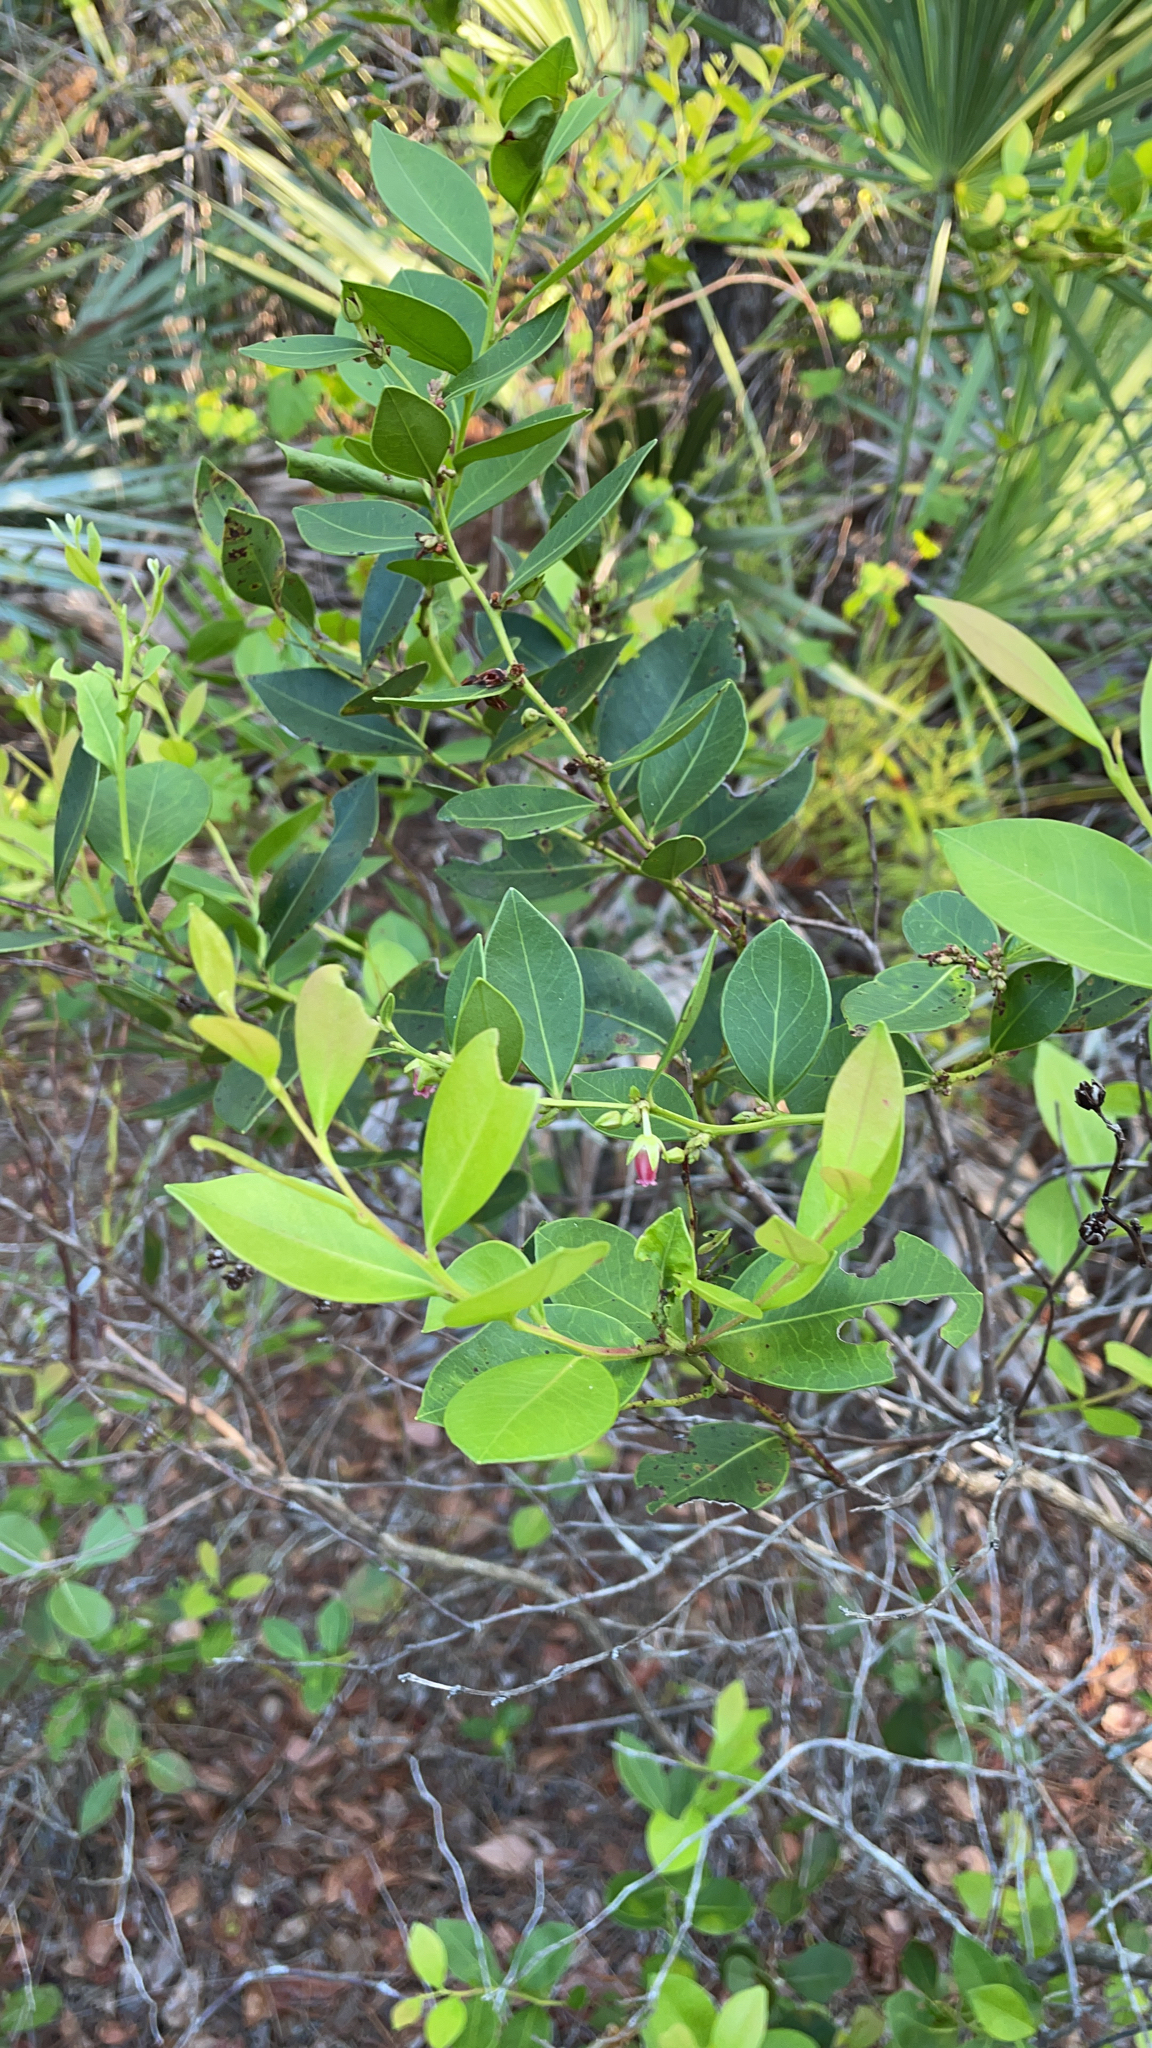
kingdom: Plantae
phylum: Tracheophyta
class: Magnoliopsida
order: Ericales
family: Ericaceae
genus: Lyonia
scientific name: Lyonia lucida
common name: Fetterbush
